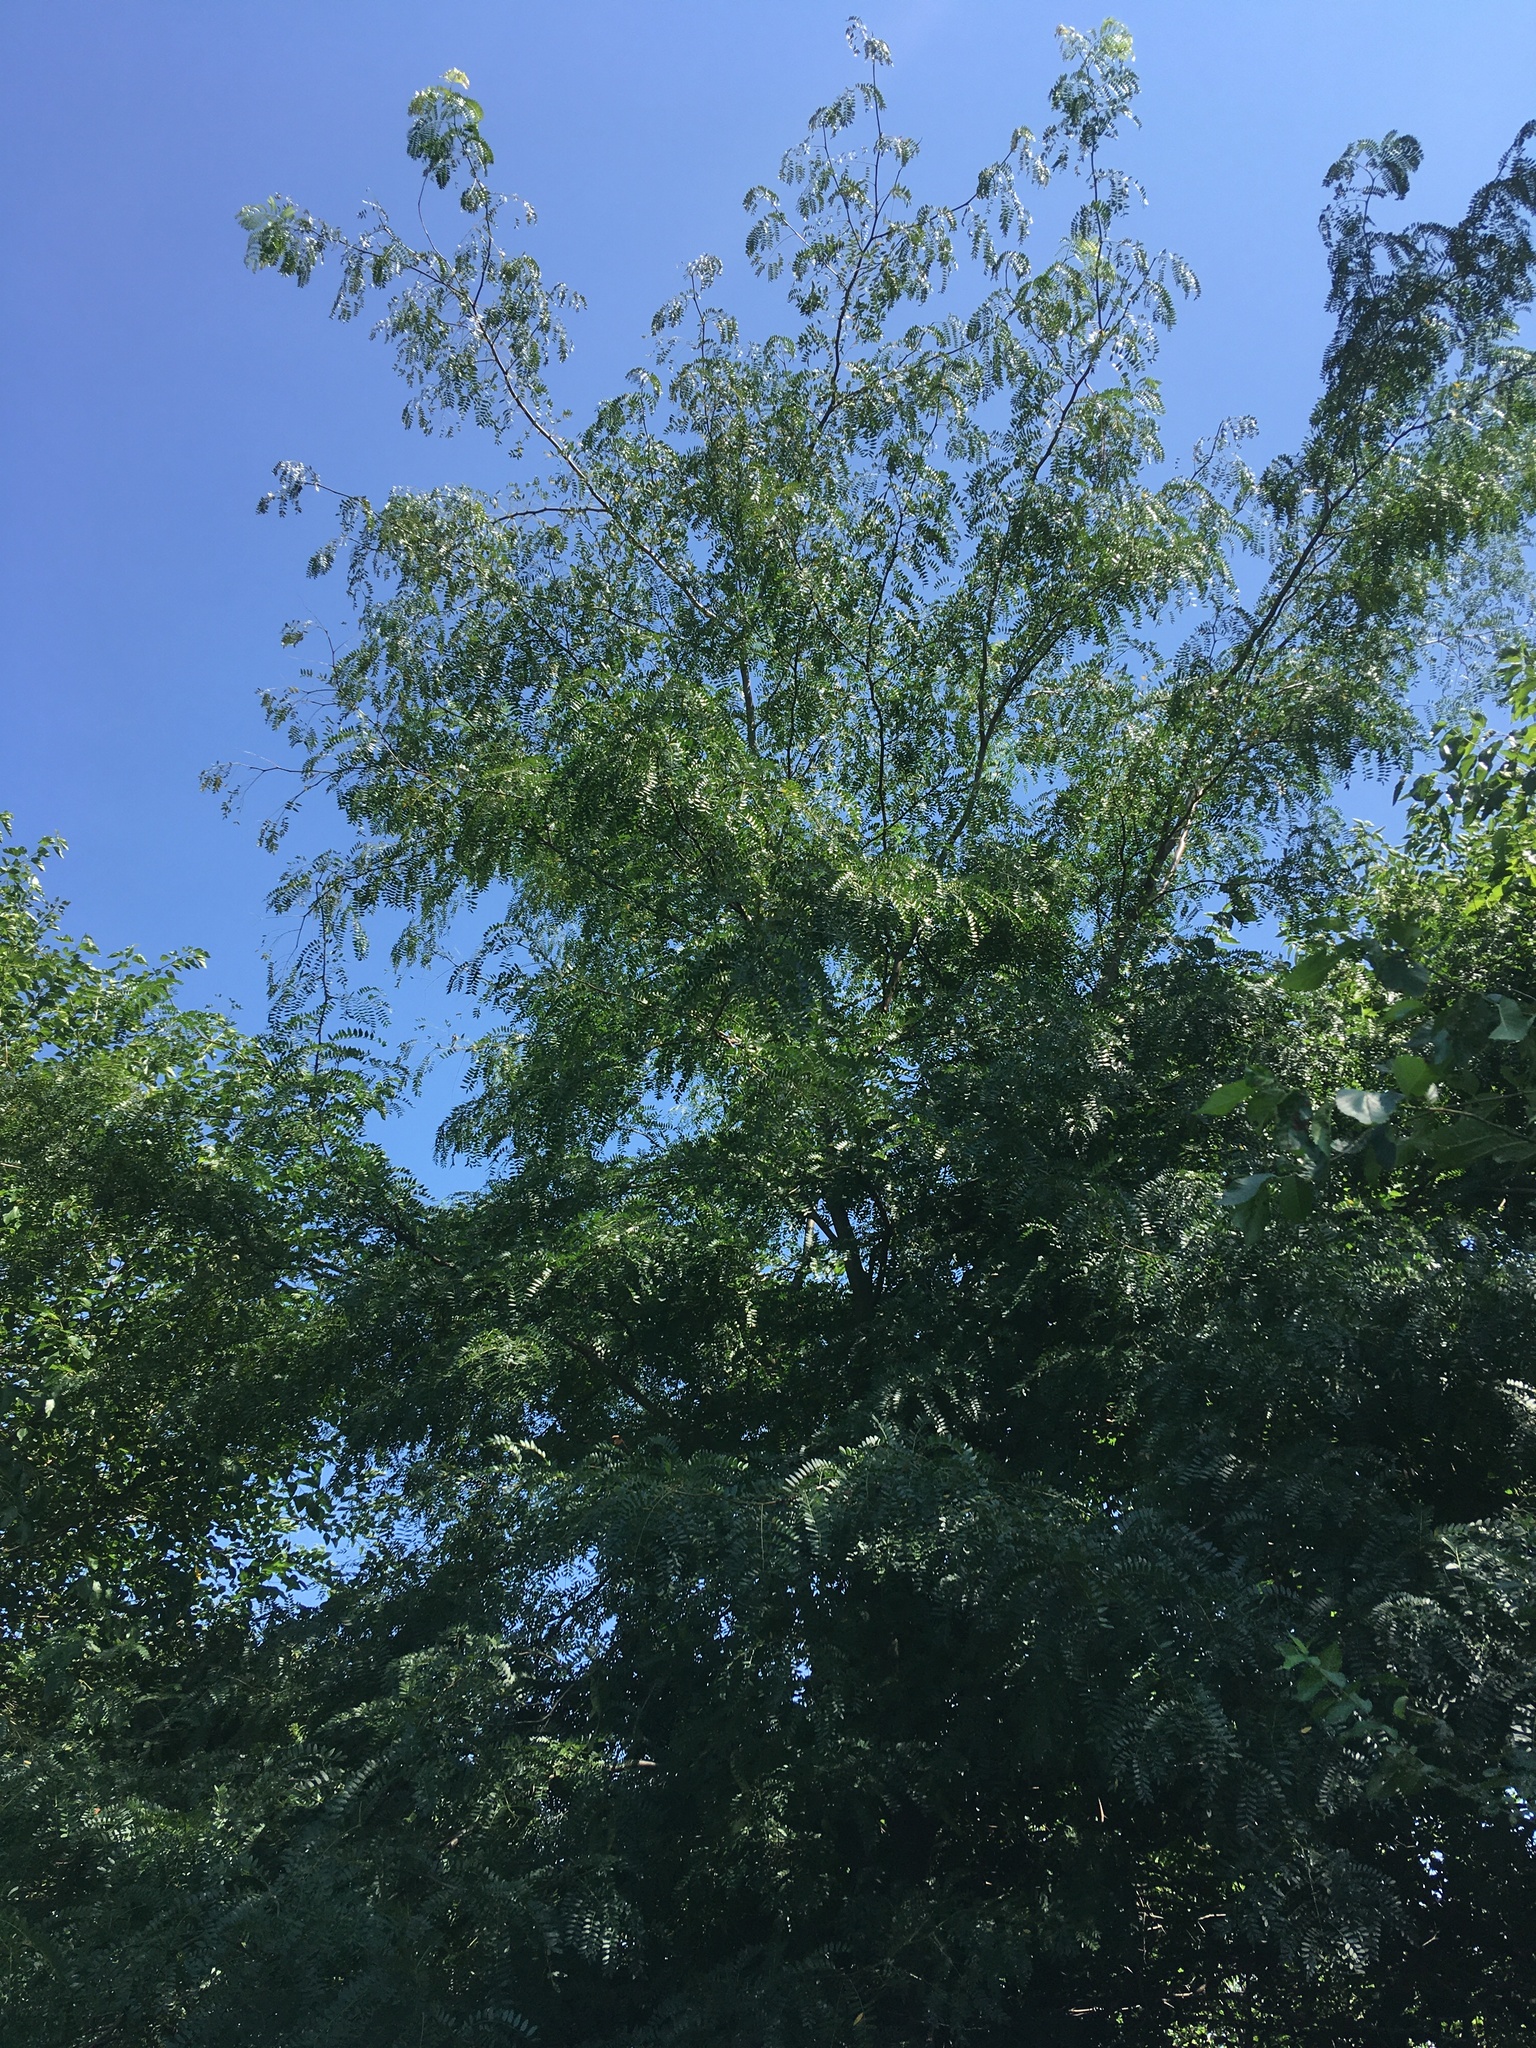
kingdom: Plantae
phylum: Tracheophyta
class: Magnoliopsida
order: Fabales
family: Fabaceae
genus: Gleditsia
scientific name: Gleditsia triacanthos
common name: Common honeylocust
